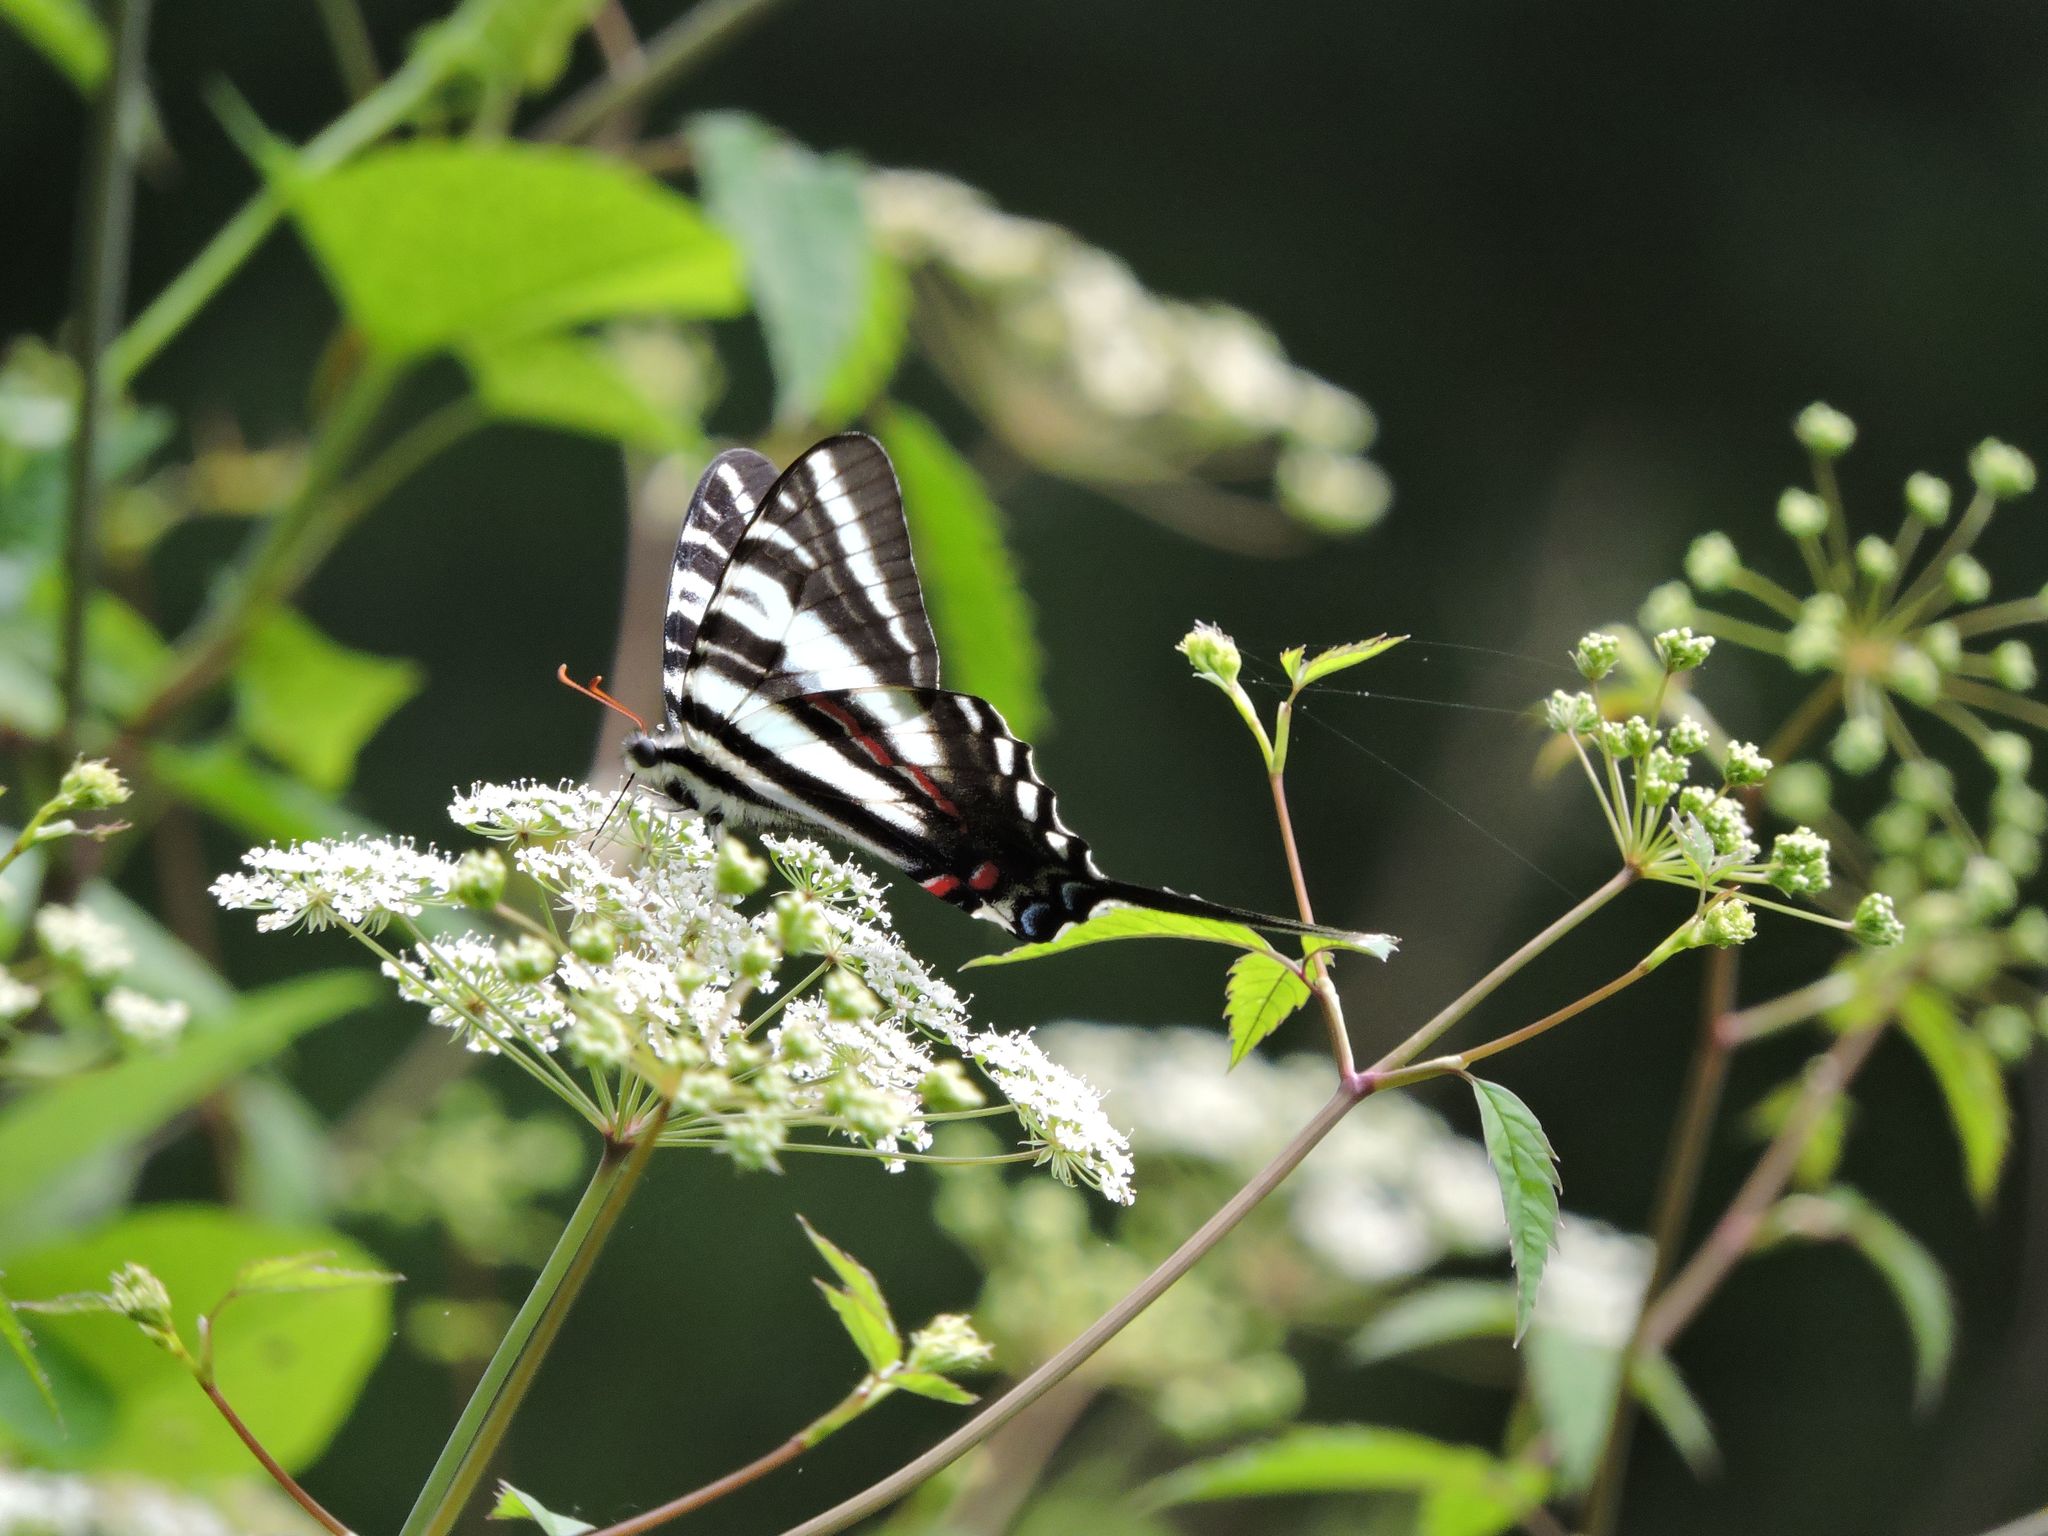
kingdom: Animalia
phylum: Arthropoda
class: Insecta
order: Lepidoptera
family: Papilionidae
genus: Protographium
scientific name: Protographium marcellus
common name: Zebra swallowtail
